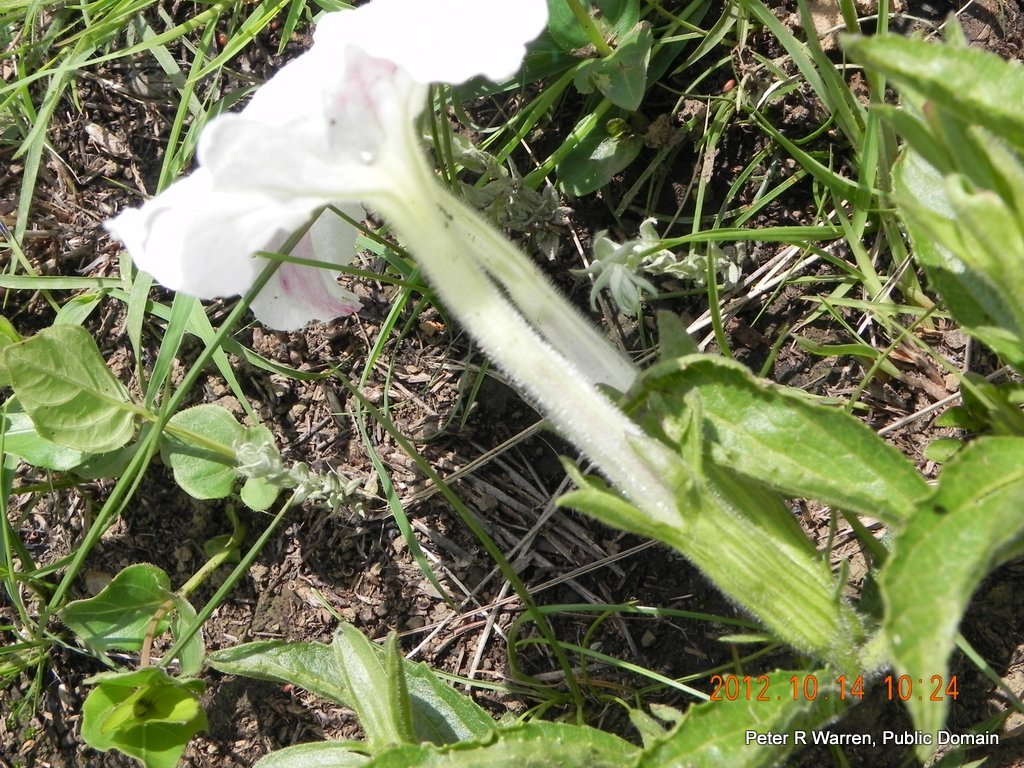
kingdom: Plantae
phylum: Tracheophyta
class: Magnoliopsida
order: Lamiales
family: Orobanchaceae
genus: Cycnium
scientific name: Cycnium adonense
